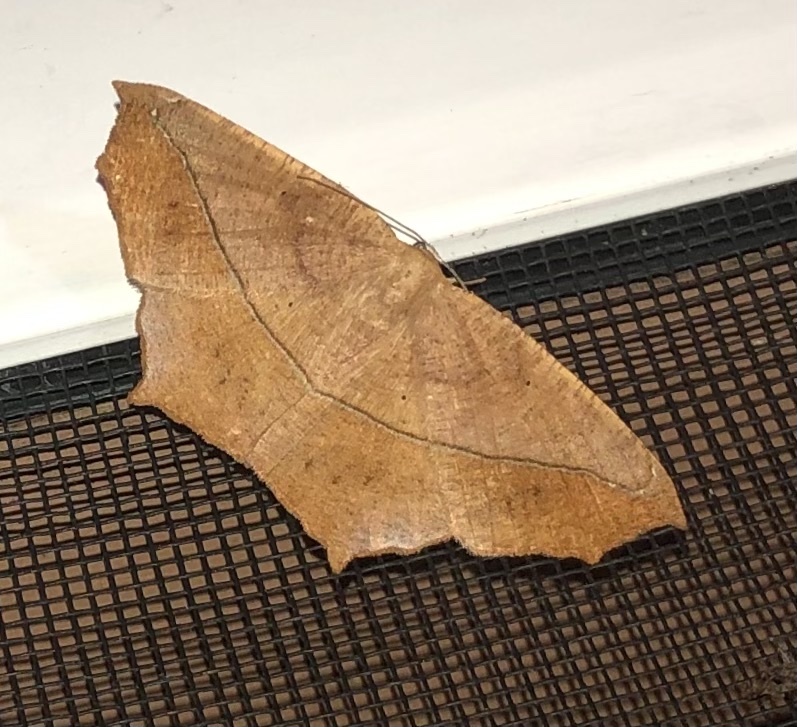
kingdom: Animalia
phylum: Arthropoda
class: Insecta
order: Lepidoptera
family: Geometridae
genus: Prochoerodes
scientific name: Prochoerodes lineola
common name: Large maple spanworm
